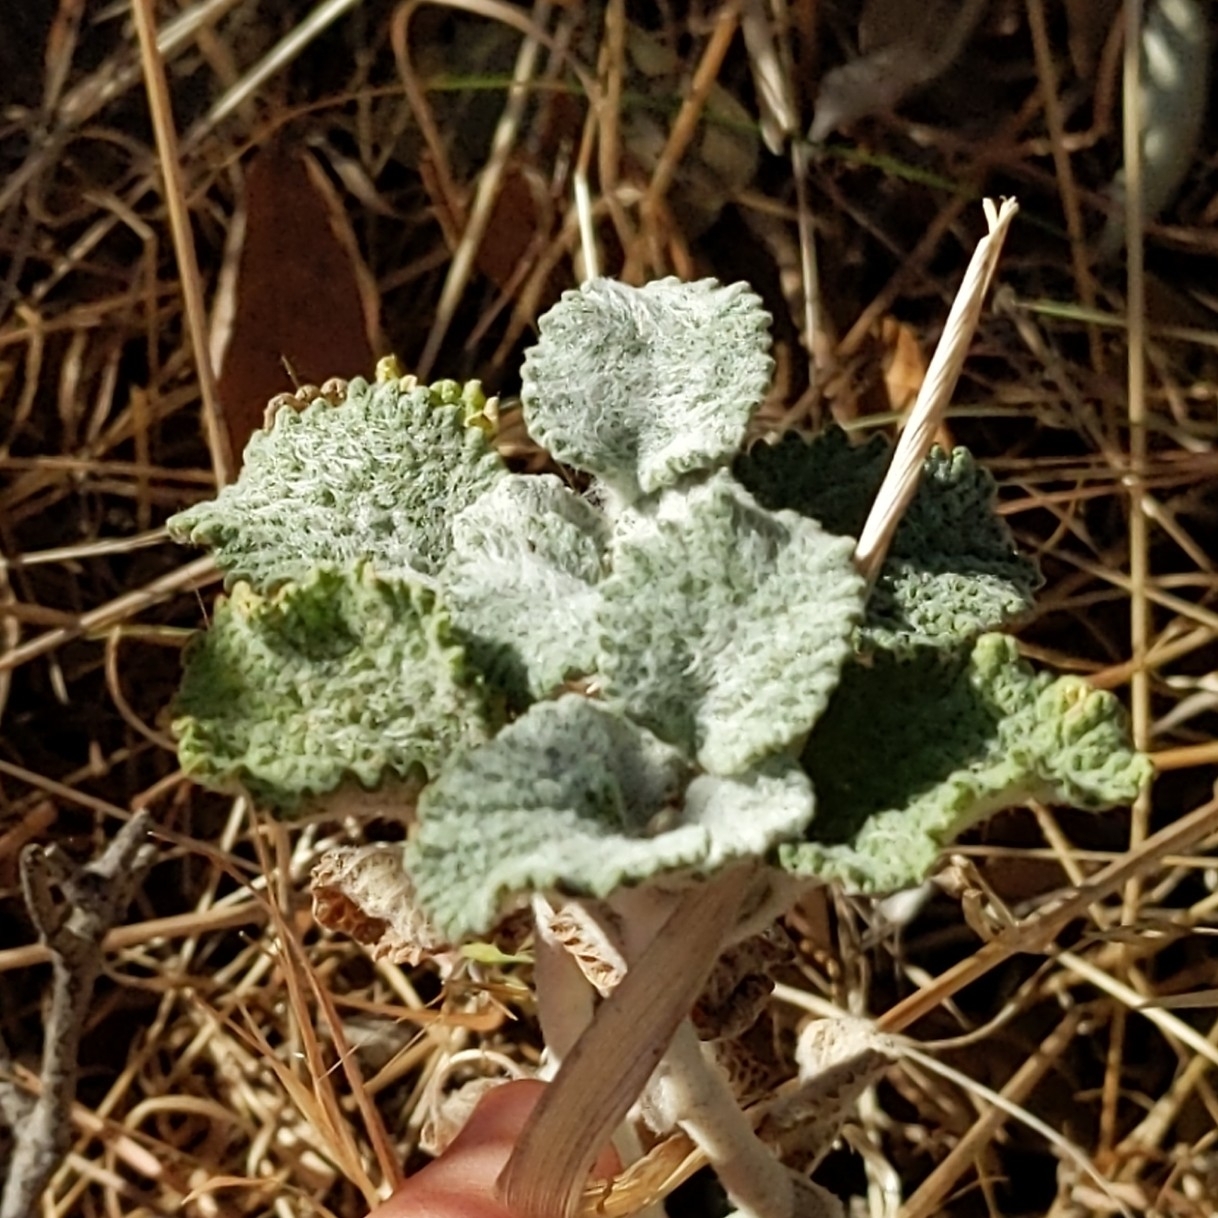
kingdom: Plantae
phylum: Tracheophyta
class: Magnoliopsida
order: Lamiales
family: Lamiaceae
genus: Marrubium
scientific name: Marrubium vulgare
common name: Horehound
